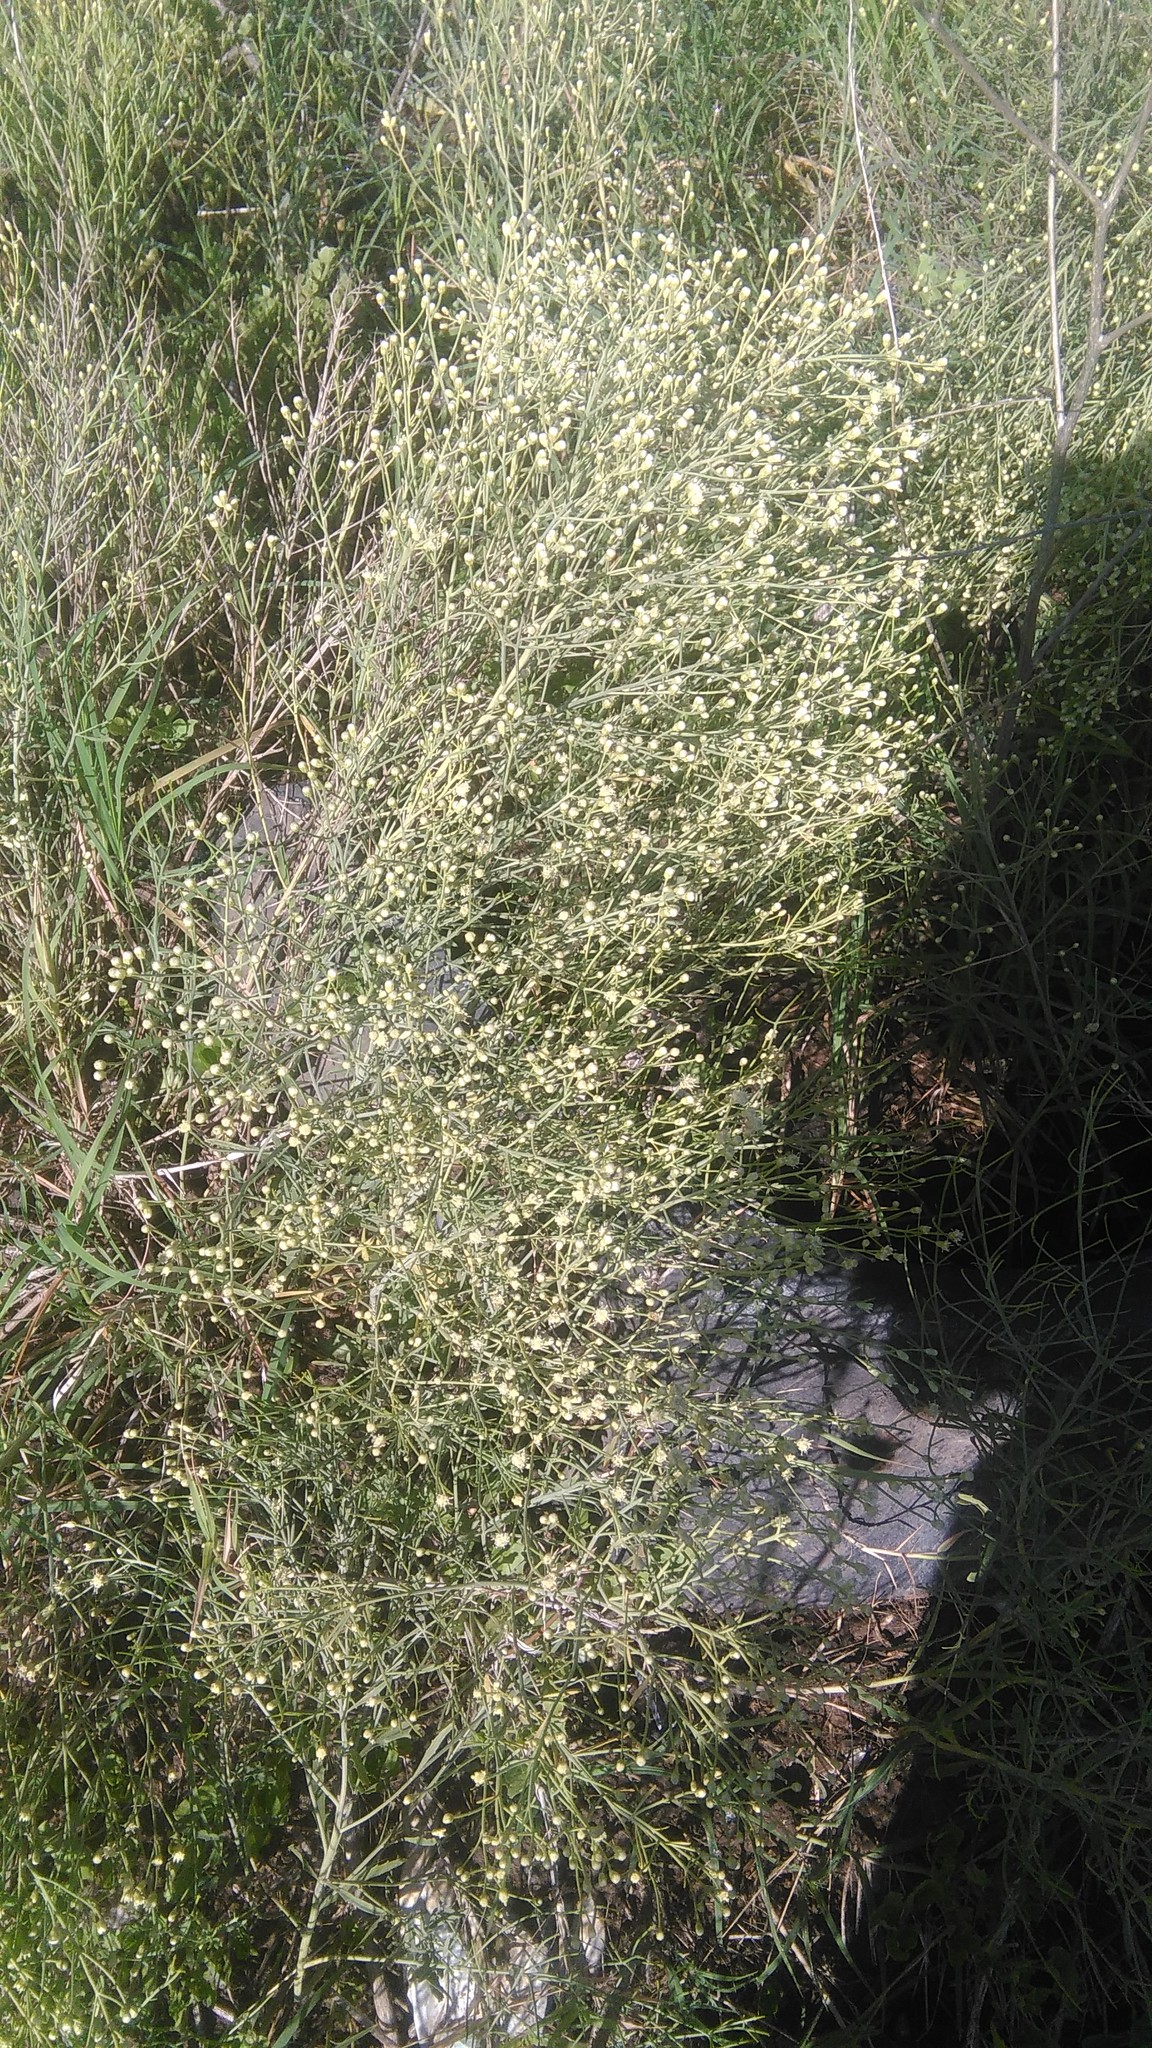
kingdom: Plantae
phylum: Tracheophyta
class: Magnoliopsida
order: Asterales
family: Asteraceae
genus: Baccharis
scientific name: Baccharis notosergila
